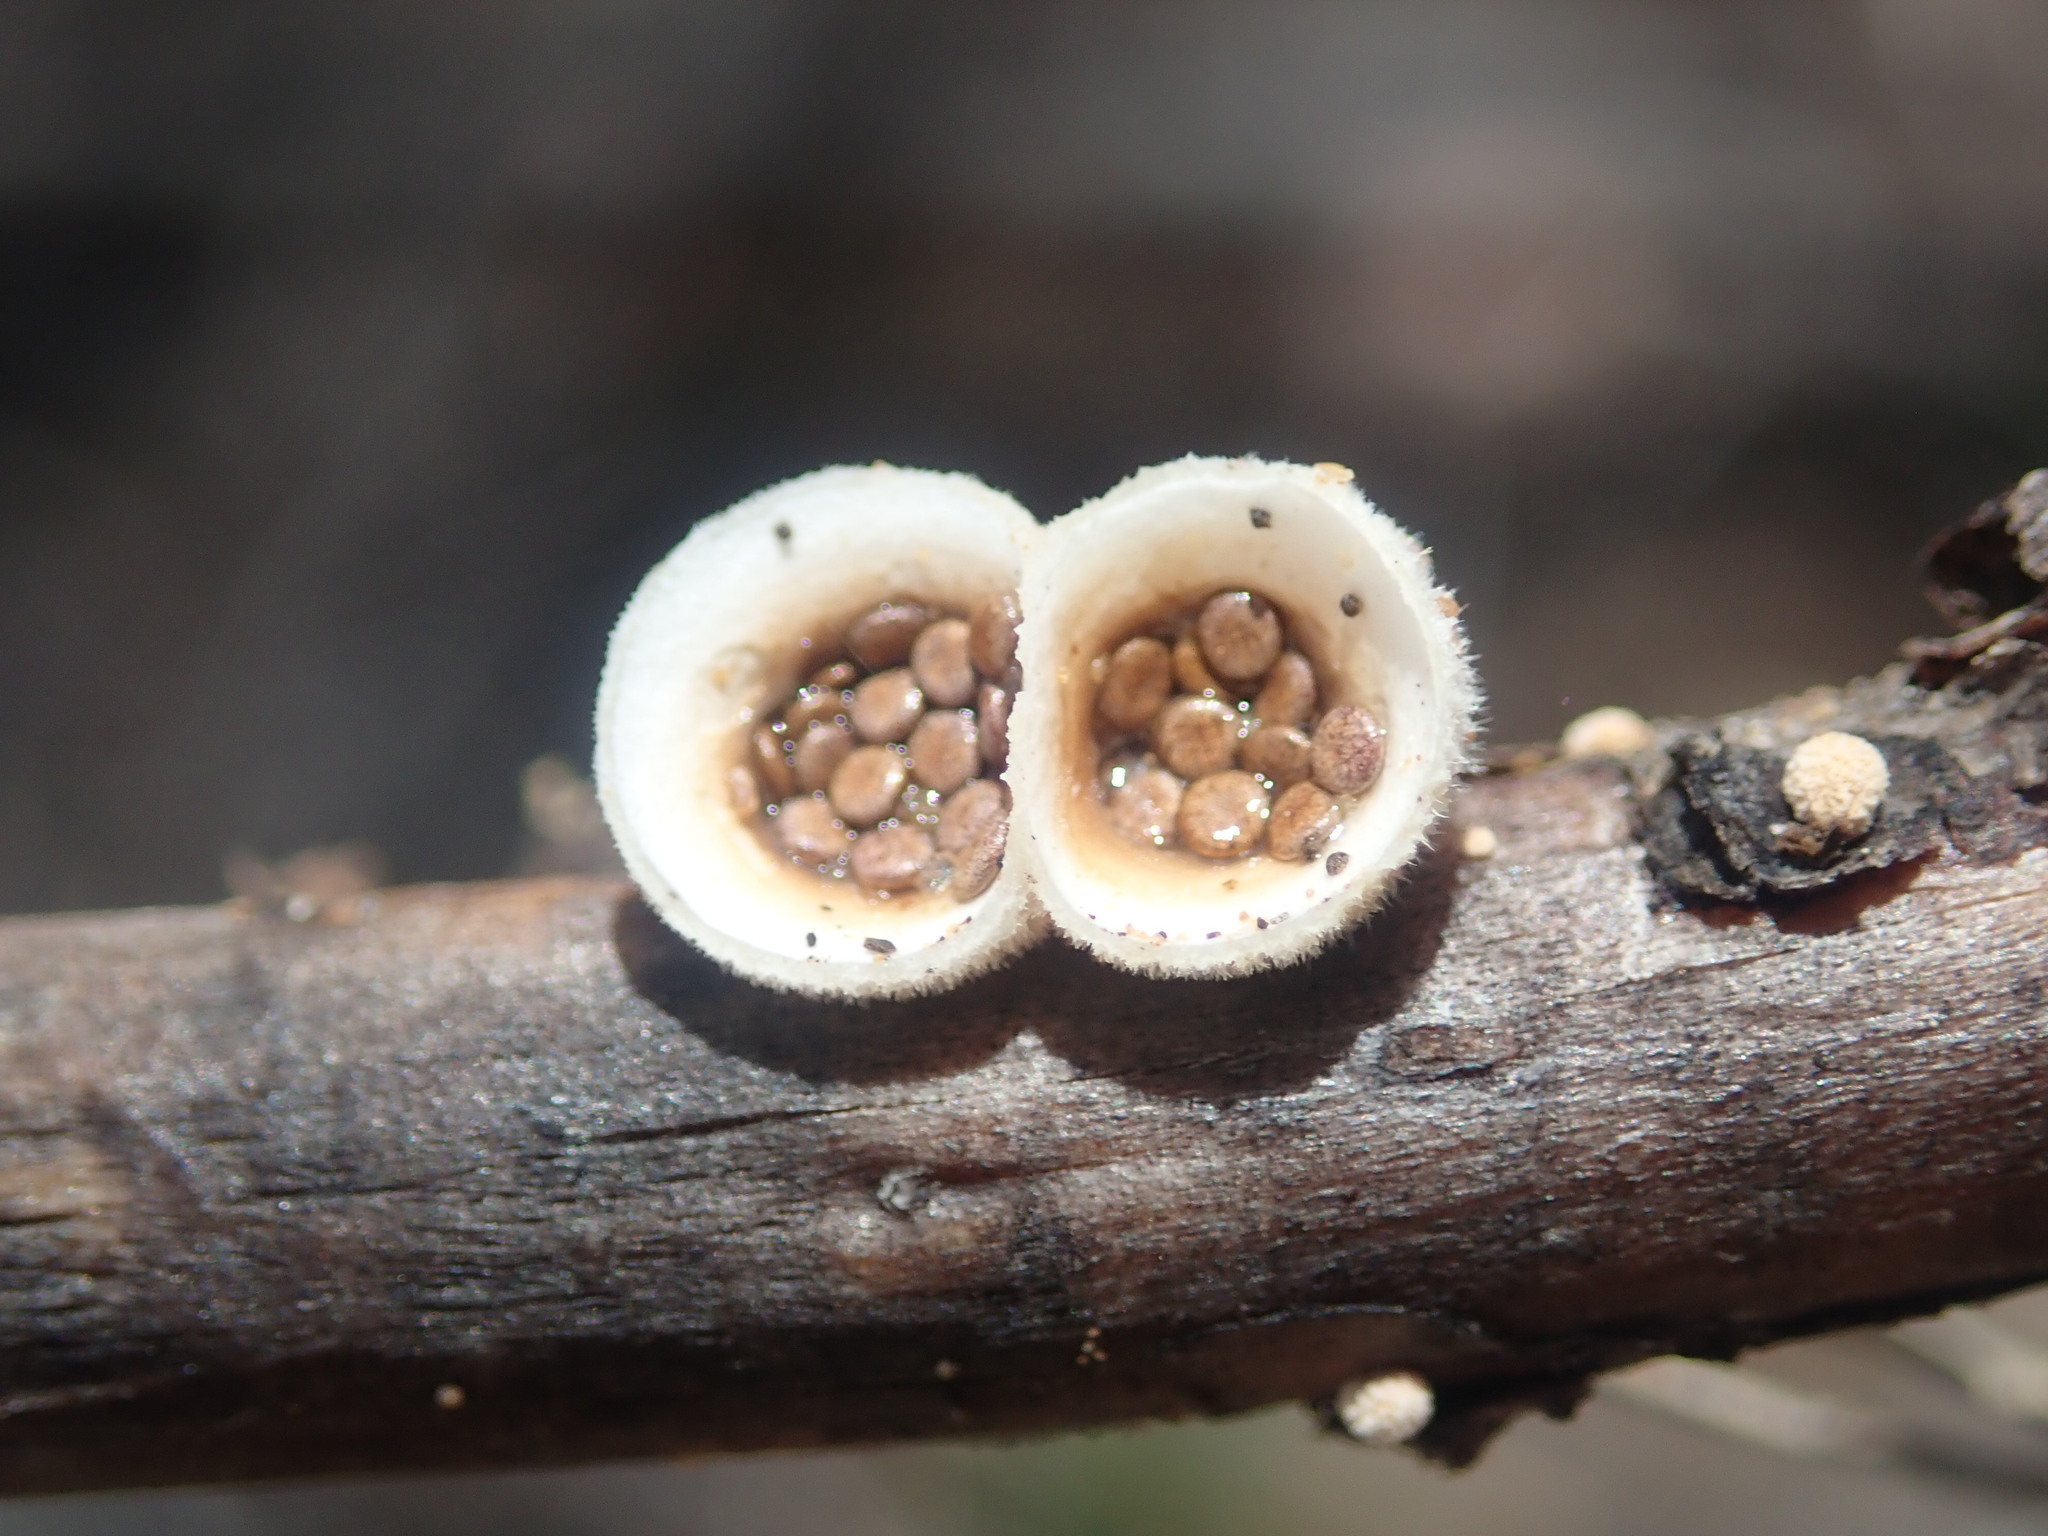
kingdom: Fungi
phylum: Basidiomycota
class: Agaricomycetes
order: Agaricales
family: Agaricaceae
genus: Nidula
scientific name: Nidula niveotomentosa
